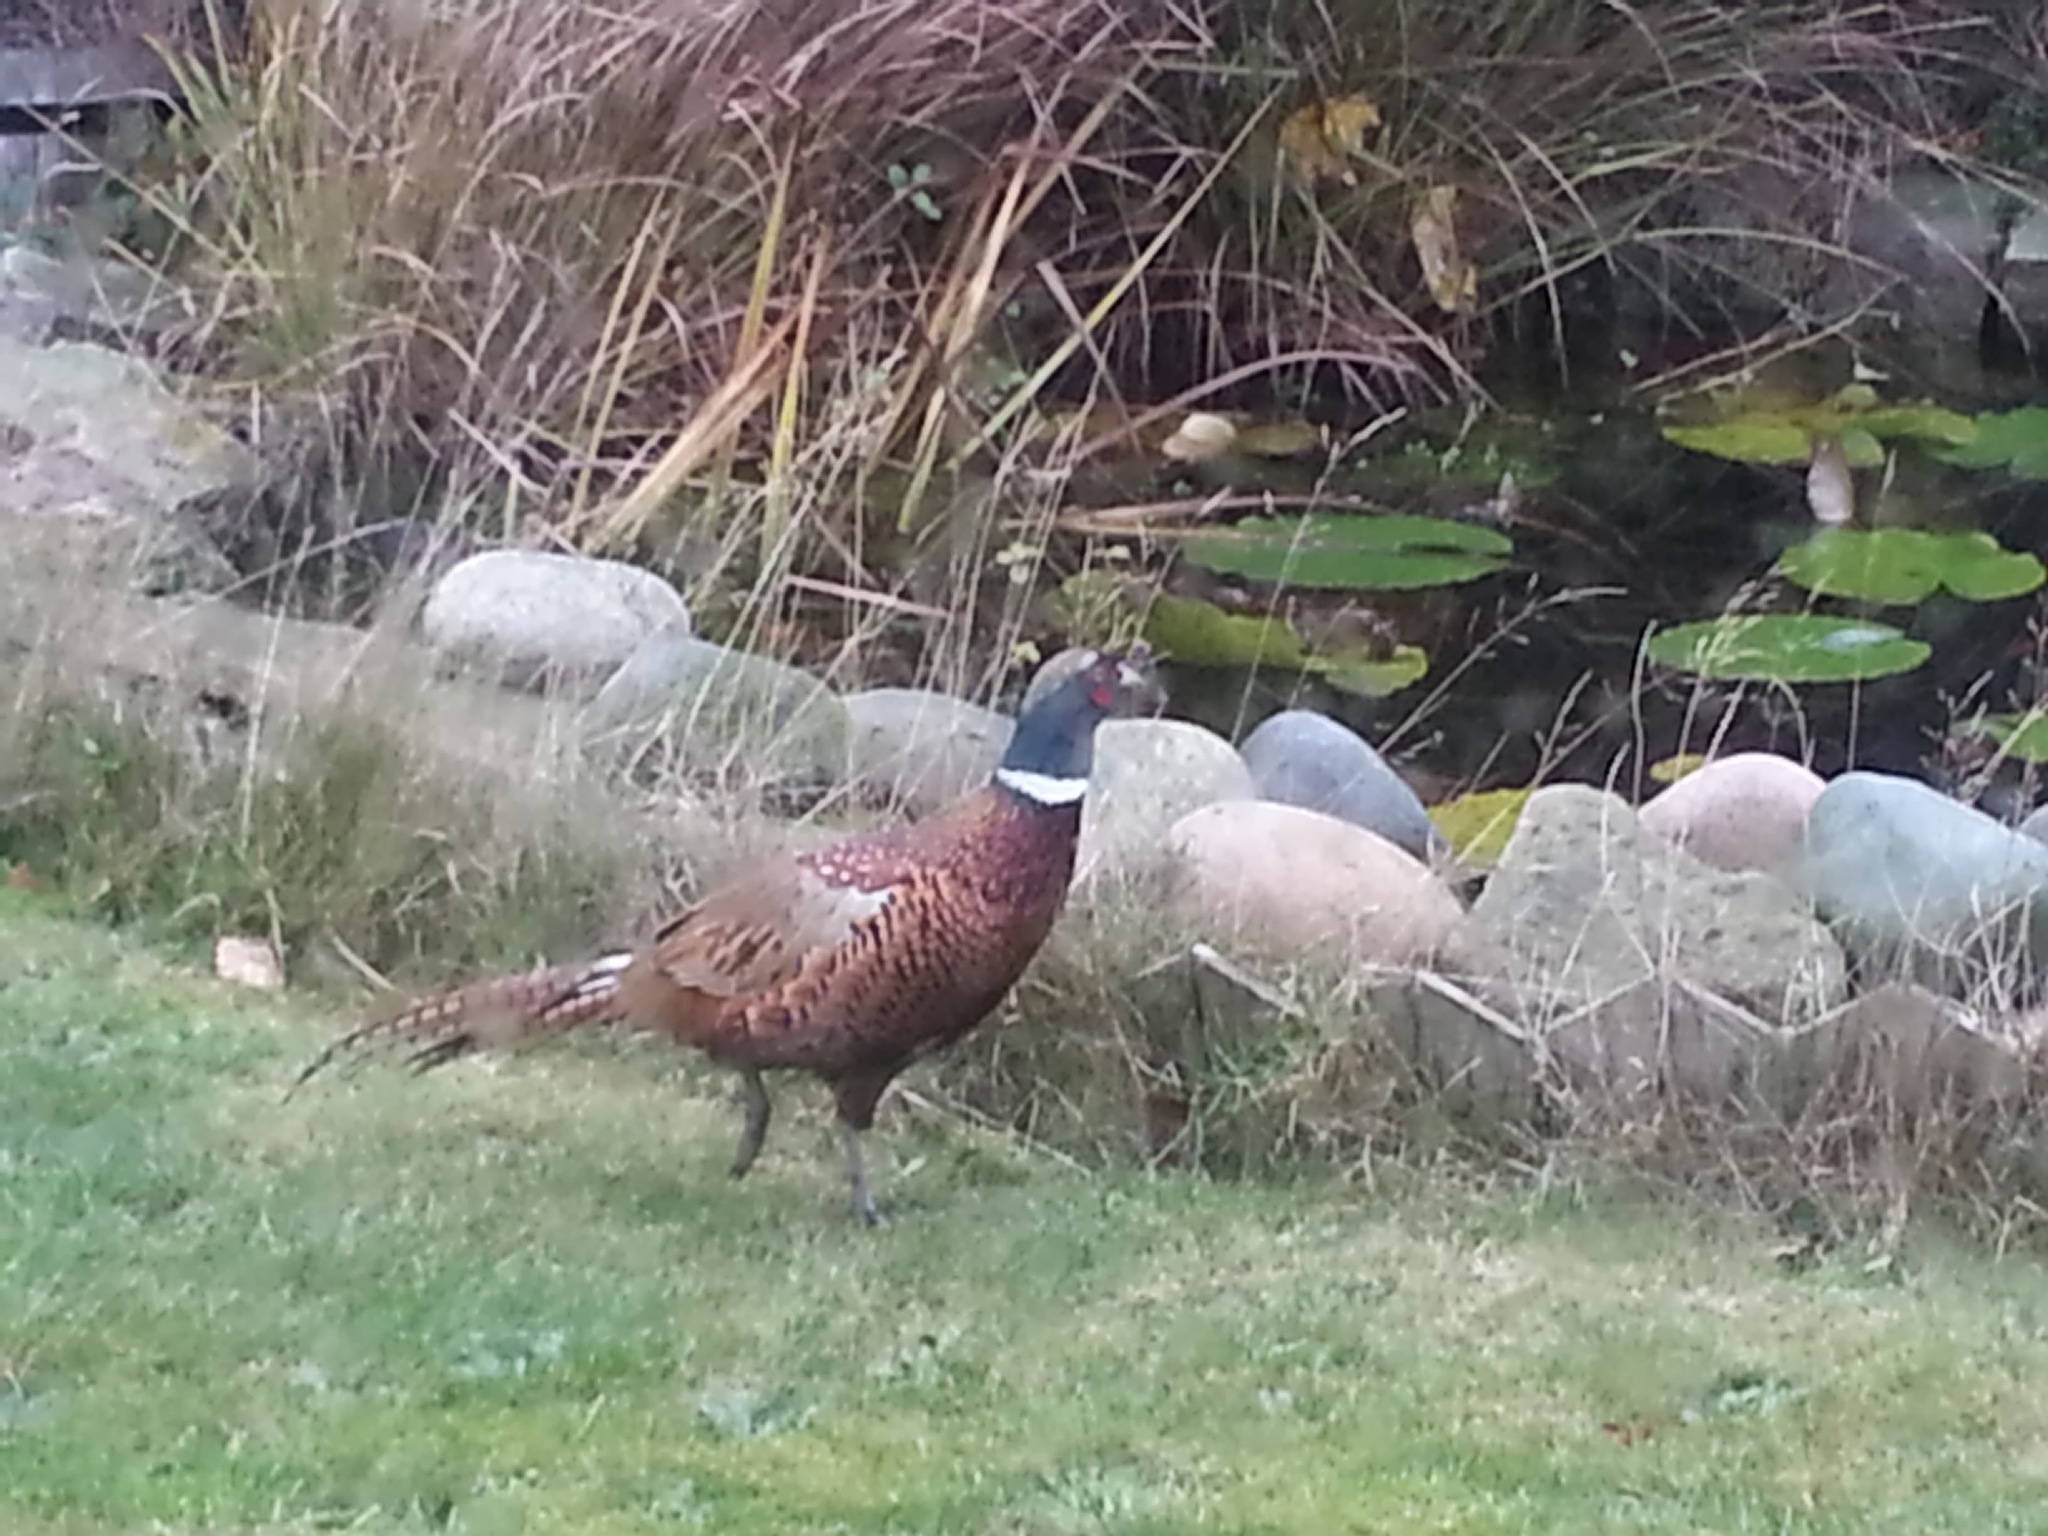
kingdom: Animalia
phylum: Chordata
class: Aves
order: Galliformes
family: Phasianidae
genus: Phasianus
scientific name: Phasianus colchicus
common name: Common pheasant
